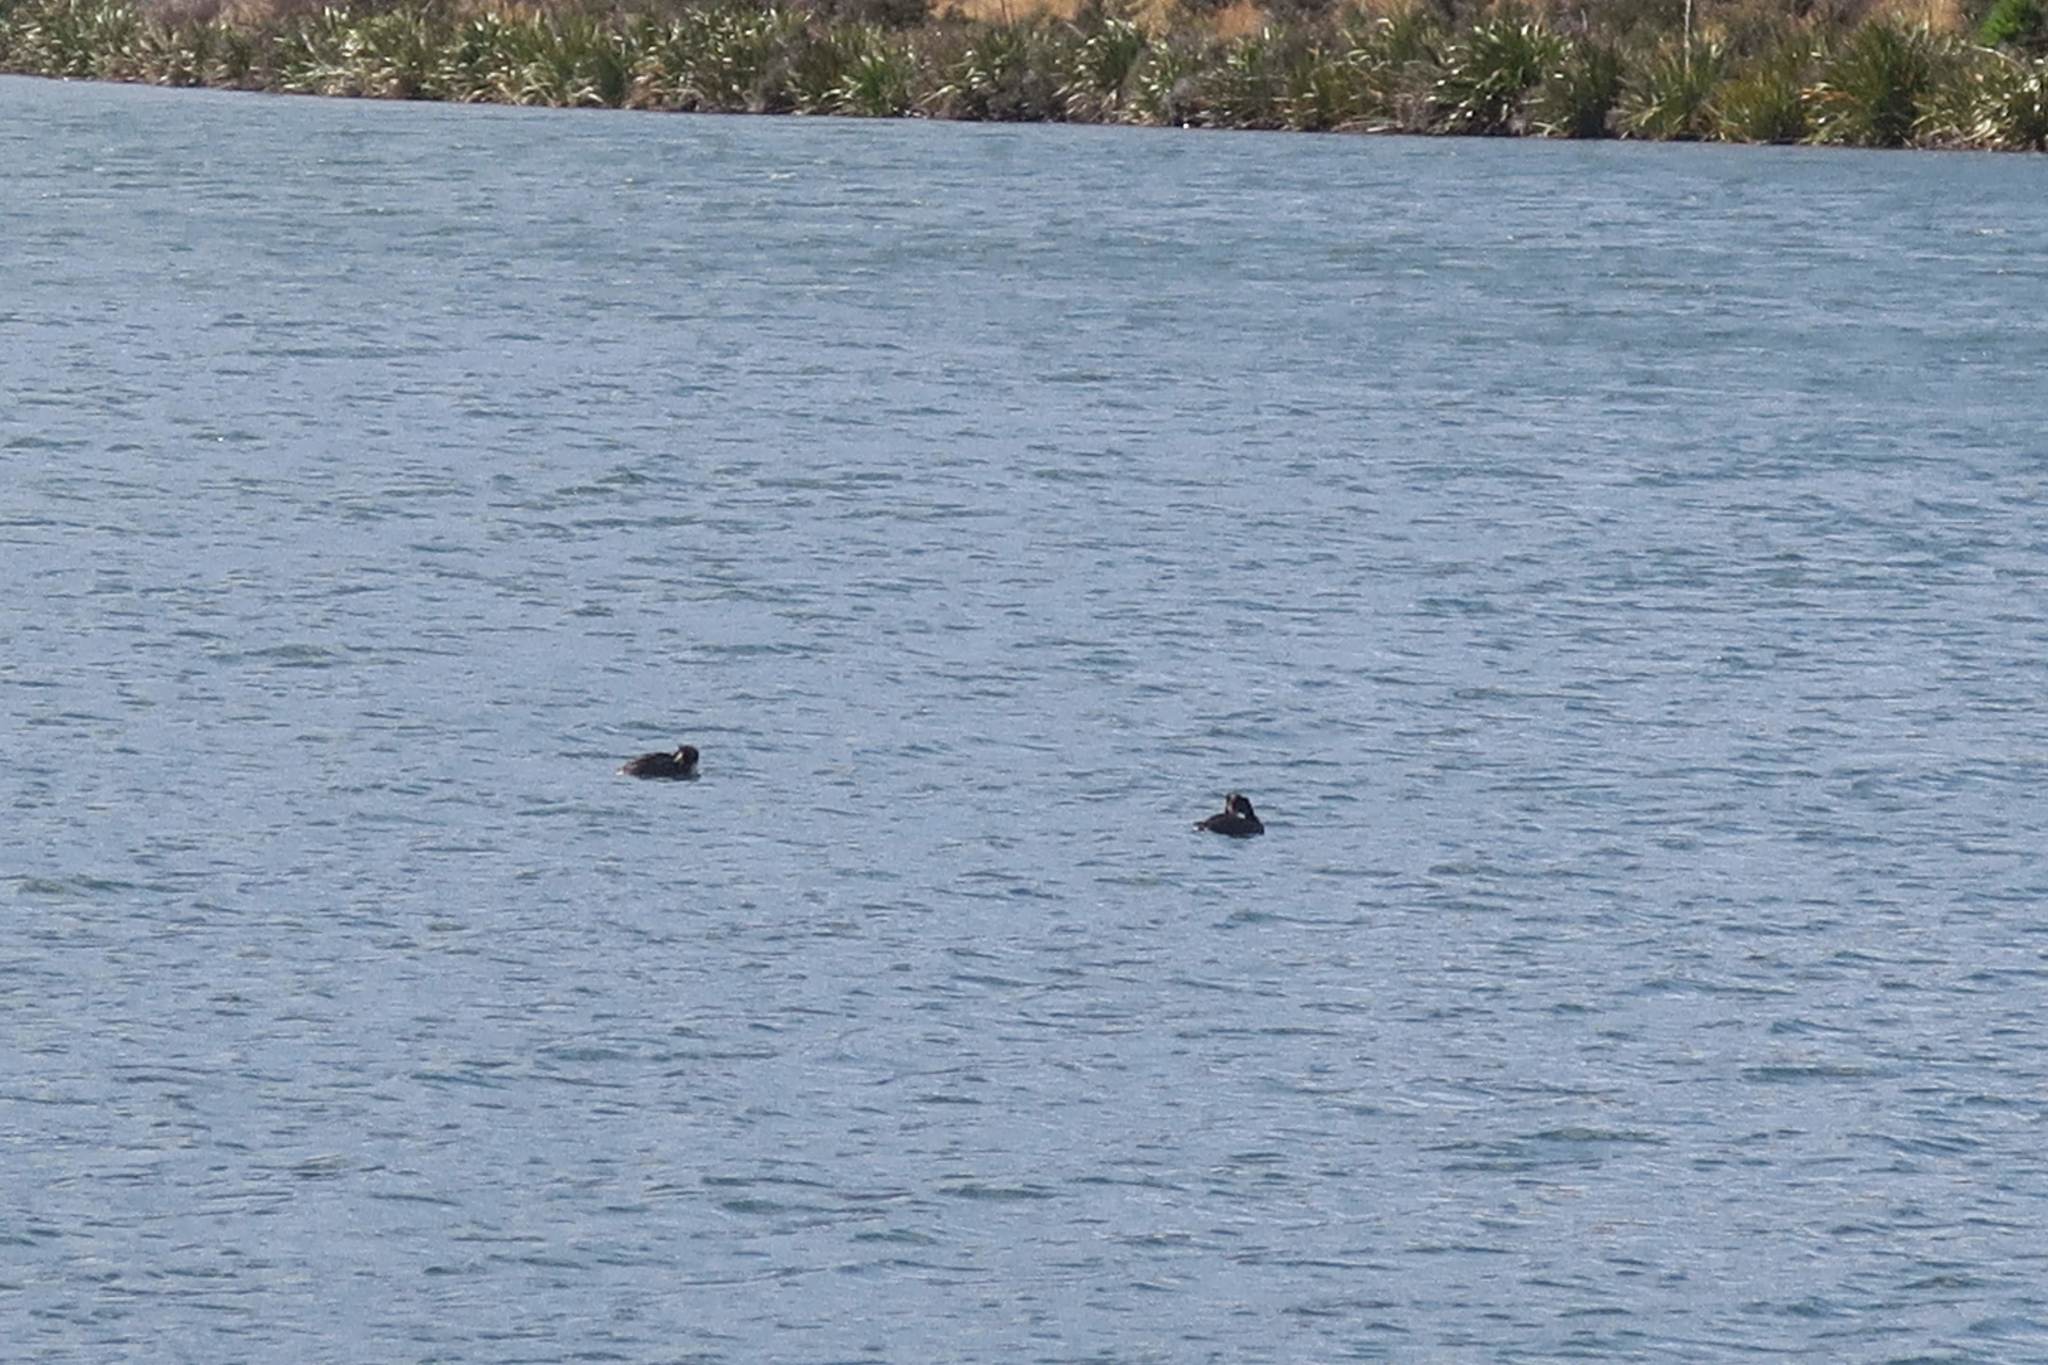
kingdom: Animalia
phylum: Chordata
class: Aves
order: Anseriformes
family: Anatidae
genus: Aythya
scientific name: Aythya novaeseelandiae
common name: New zealand scaup
